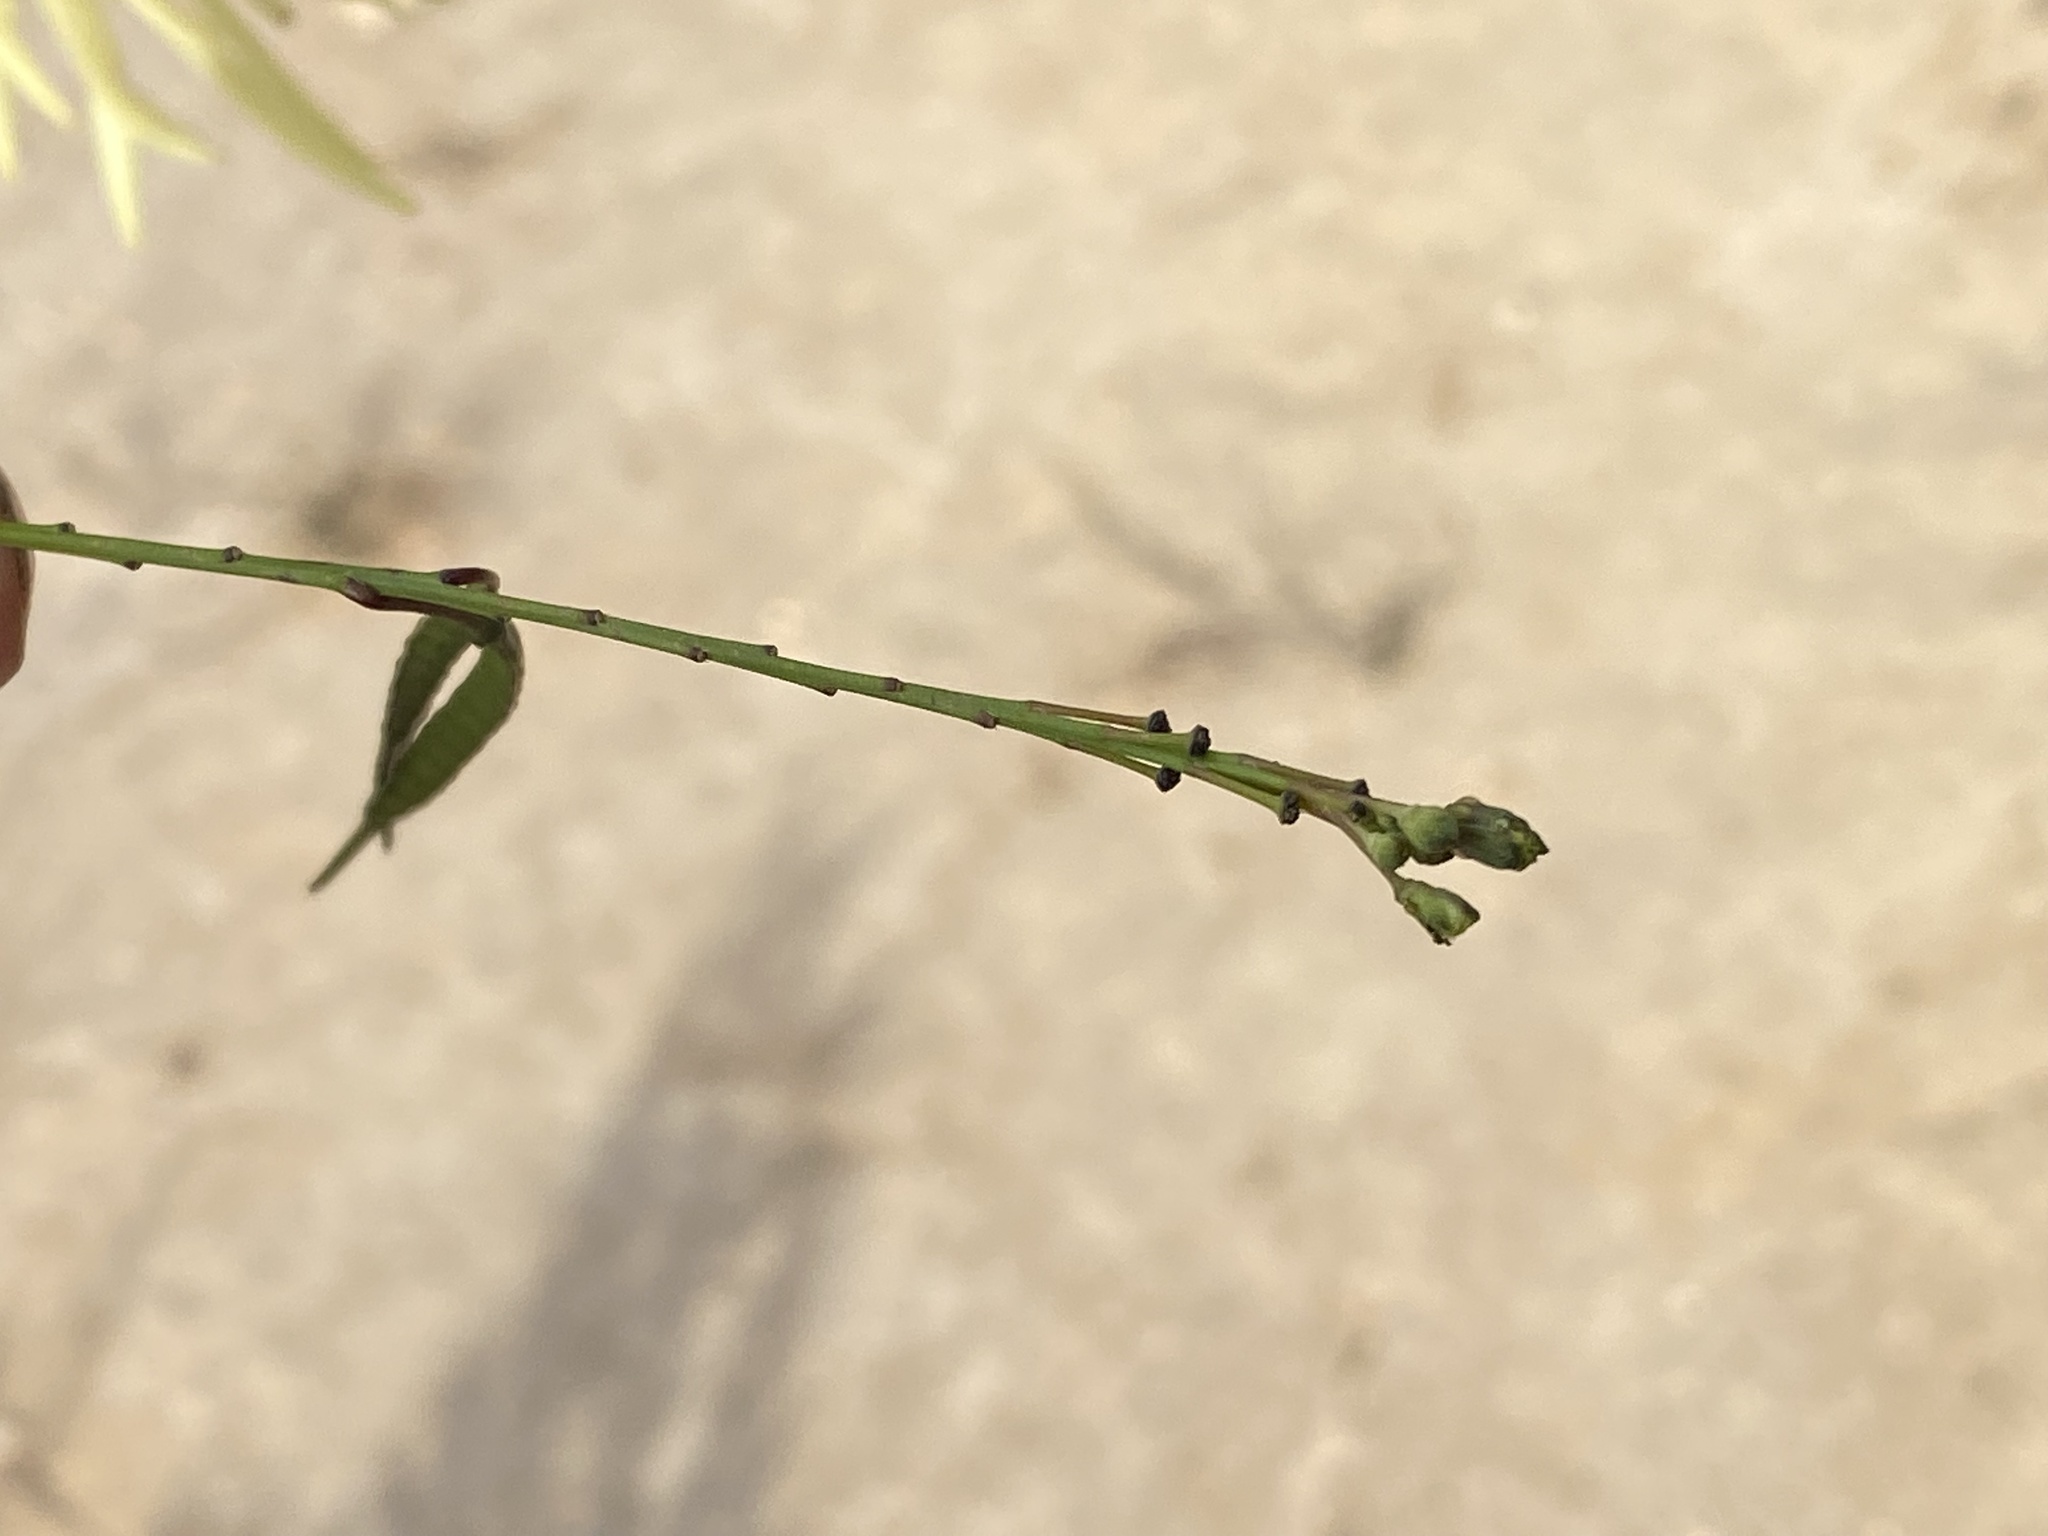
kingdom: Plantae
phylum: Tracheophyta
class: Magnoliopsida
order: Brassicales
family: Brassicaceae
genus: Heliophila
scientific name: Heliophila elongata
